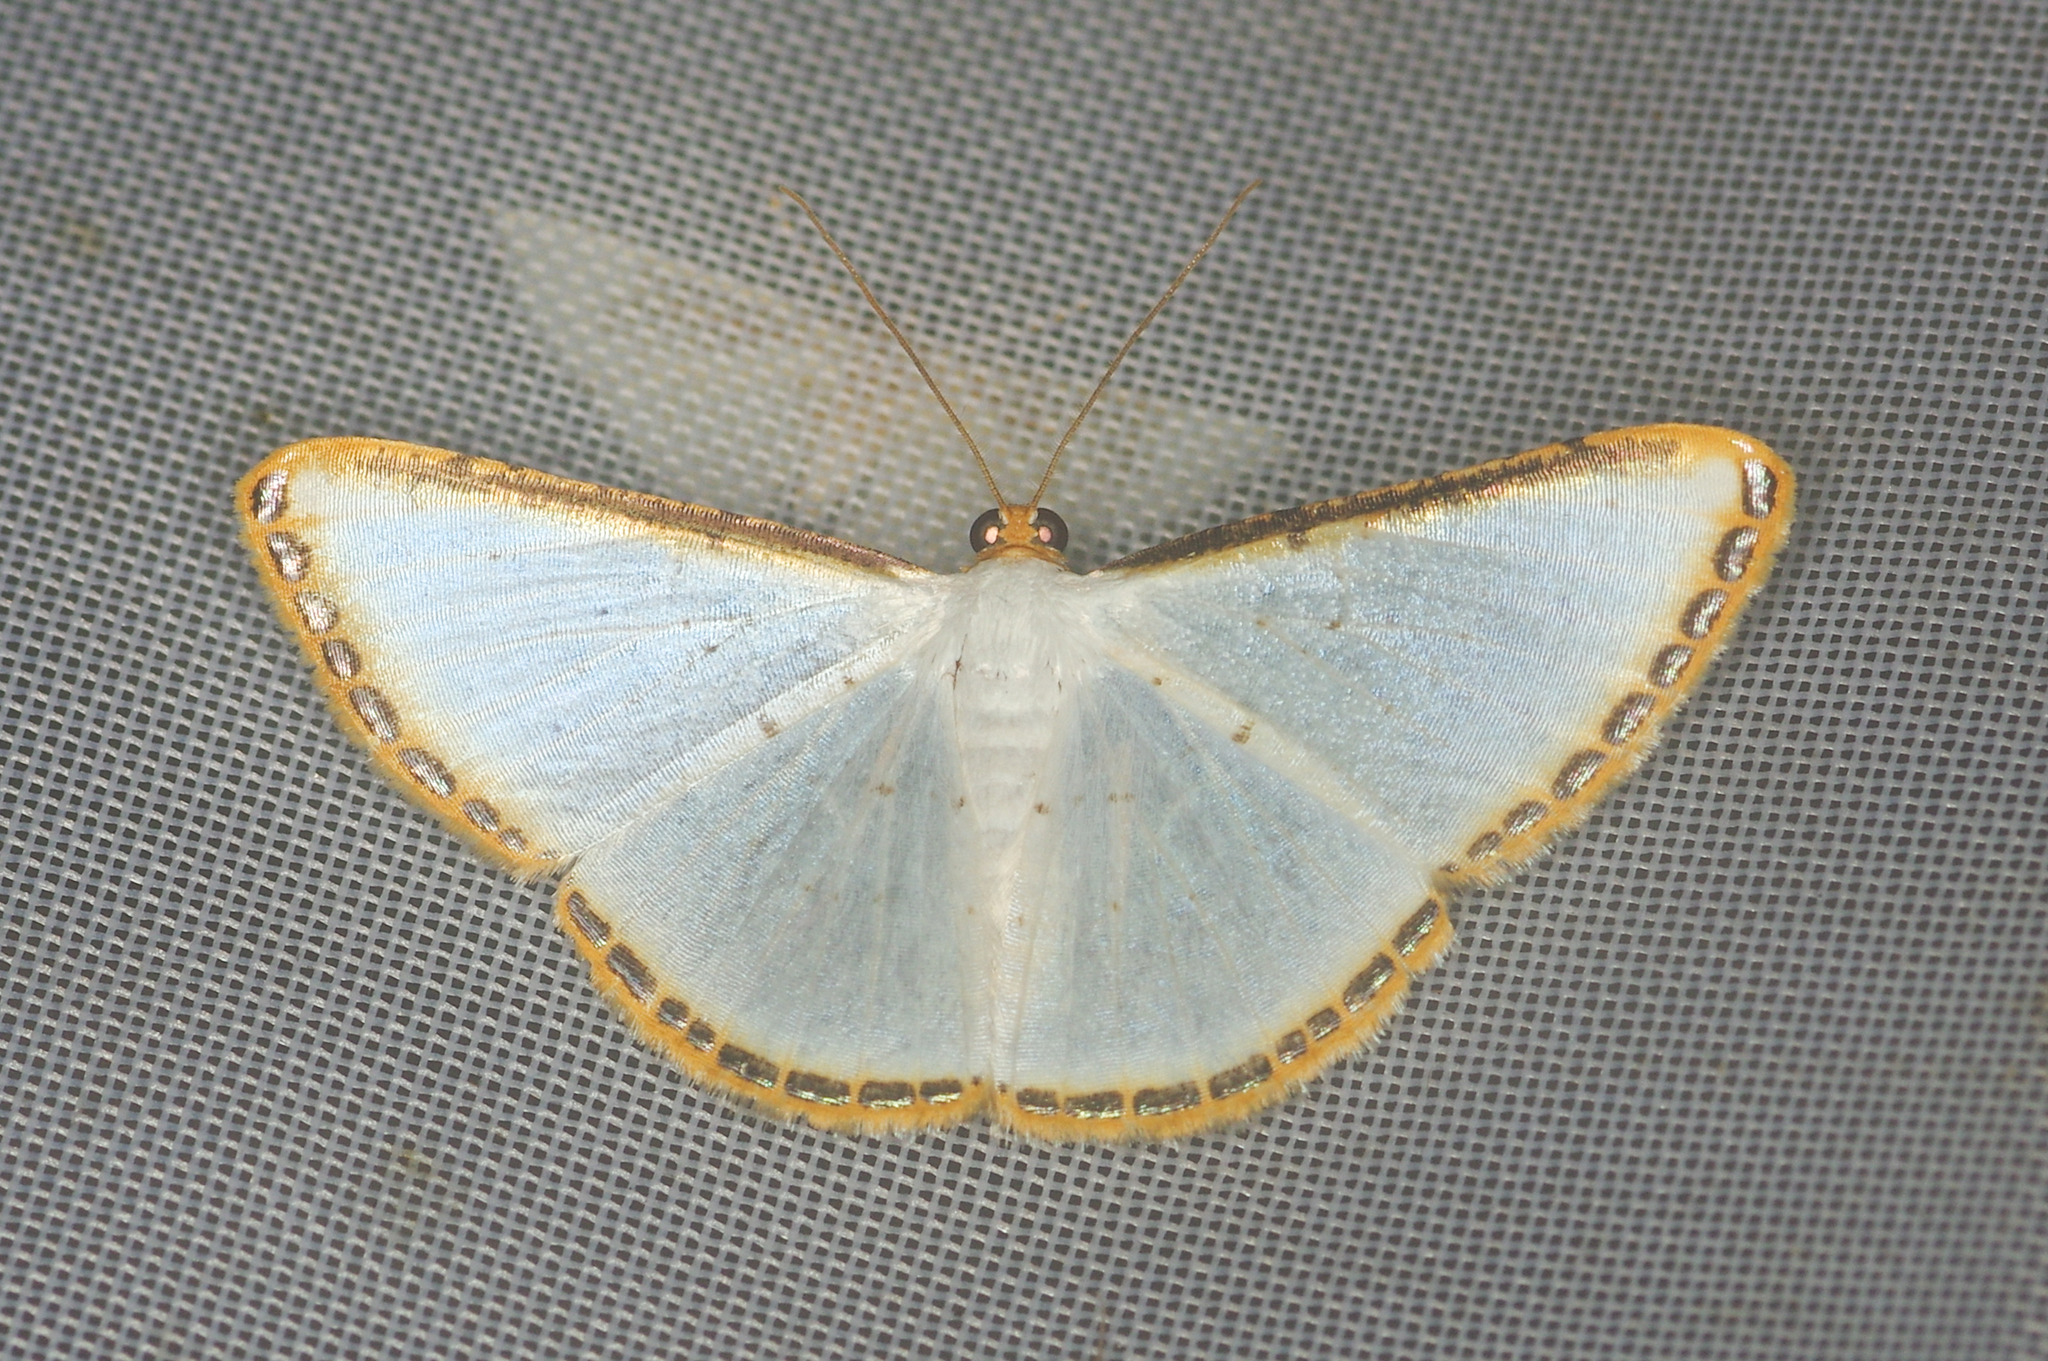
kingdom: Animalia
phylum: Arthropoda
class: Insecta
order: Lepidoptera
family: Geometridae
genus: Leuciris
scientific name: Leuciris fimbriaria
